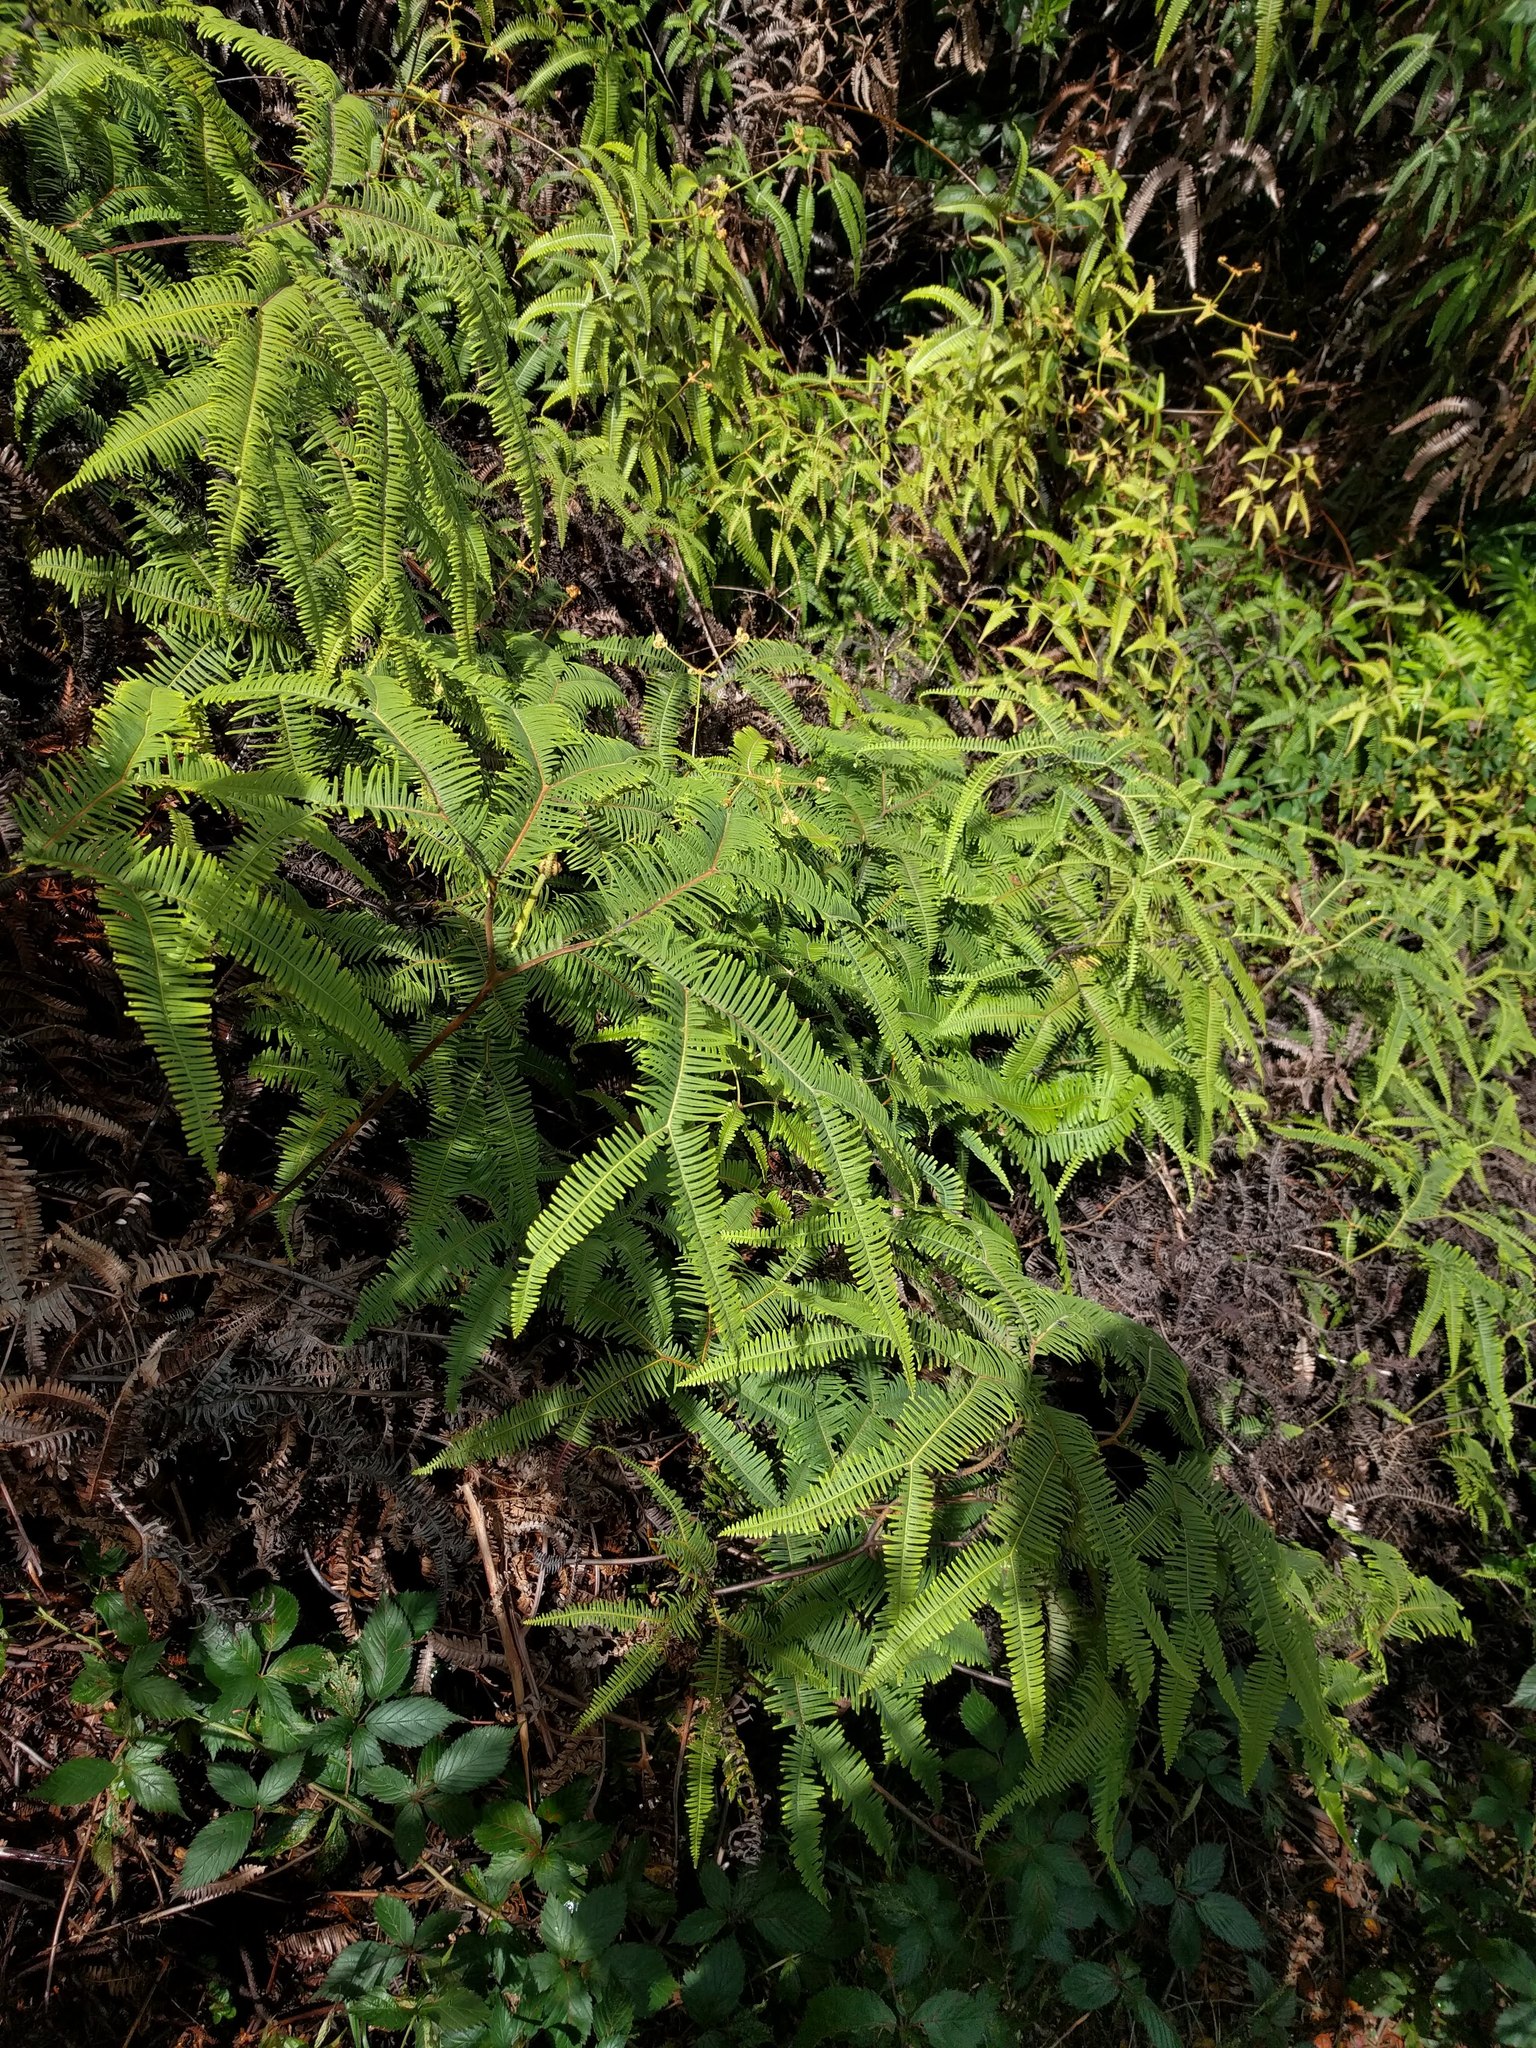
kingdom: Plantae
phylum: Tracheophyta
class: Polypodiopsida
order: Gleicheniales
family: Gleicheniaceae
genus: Sticherus
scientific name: Sticherus owhyhensis
